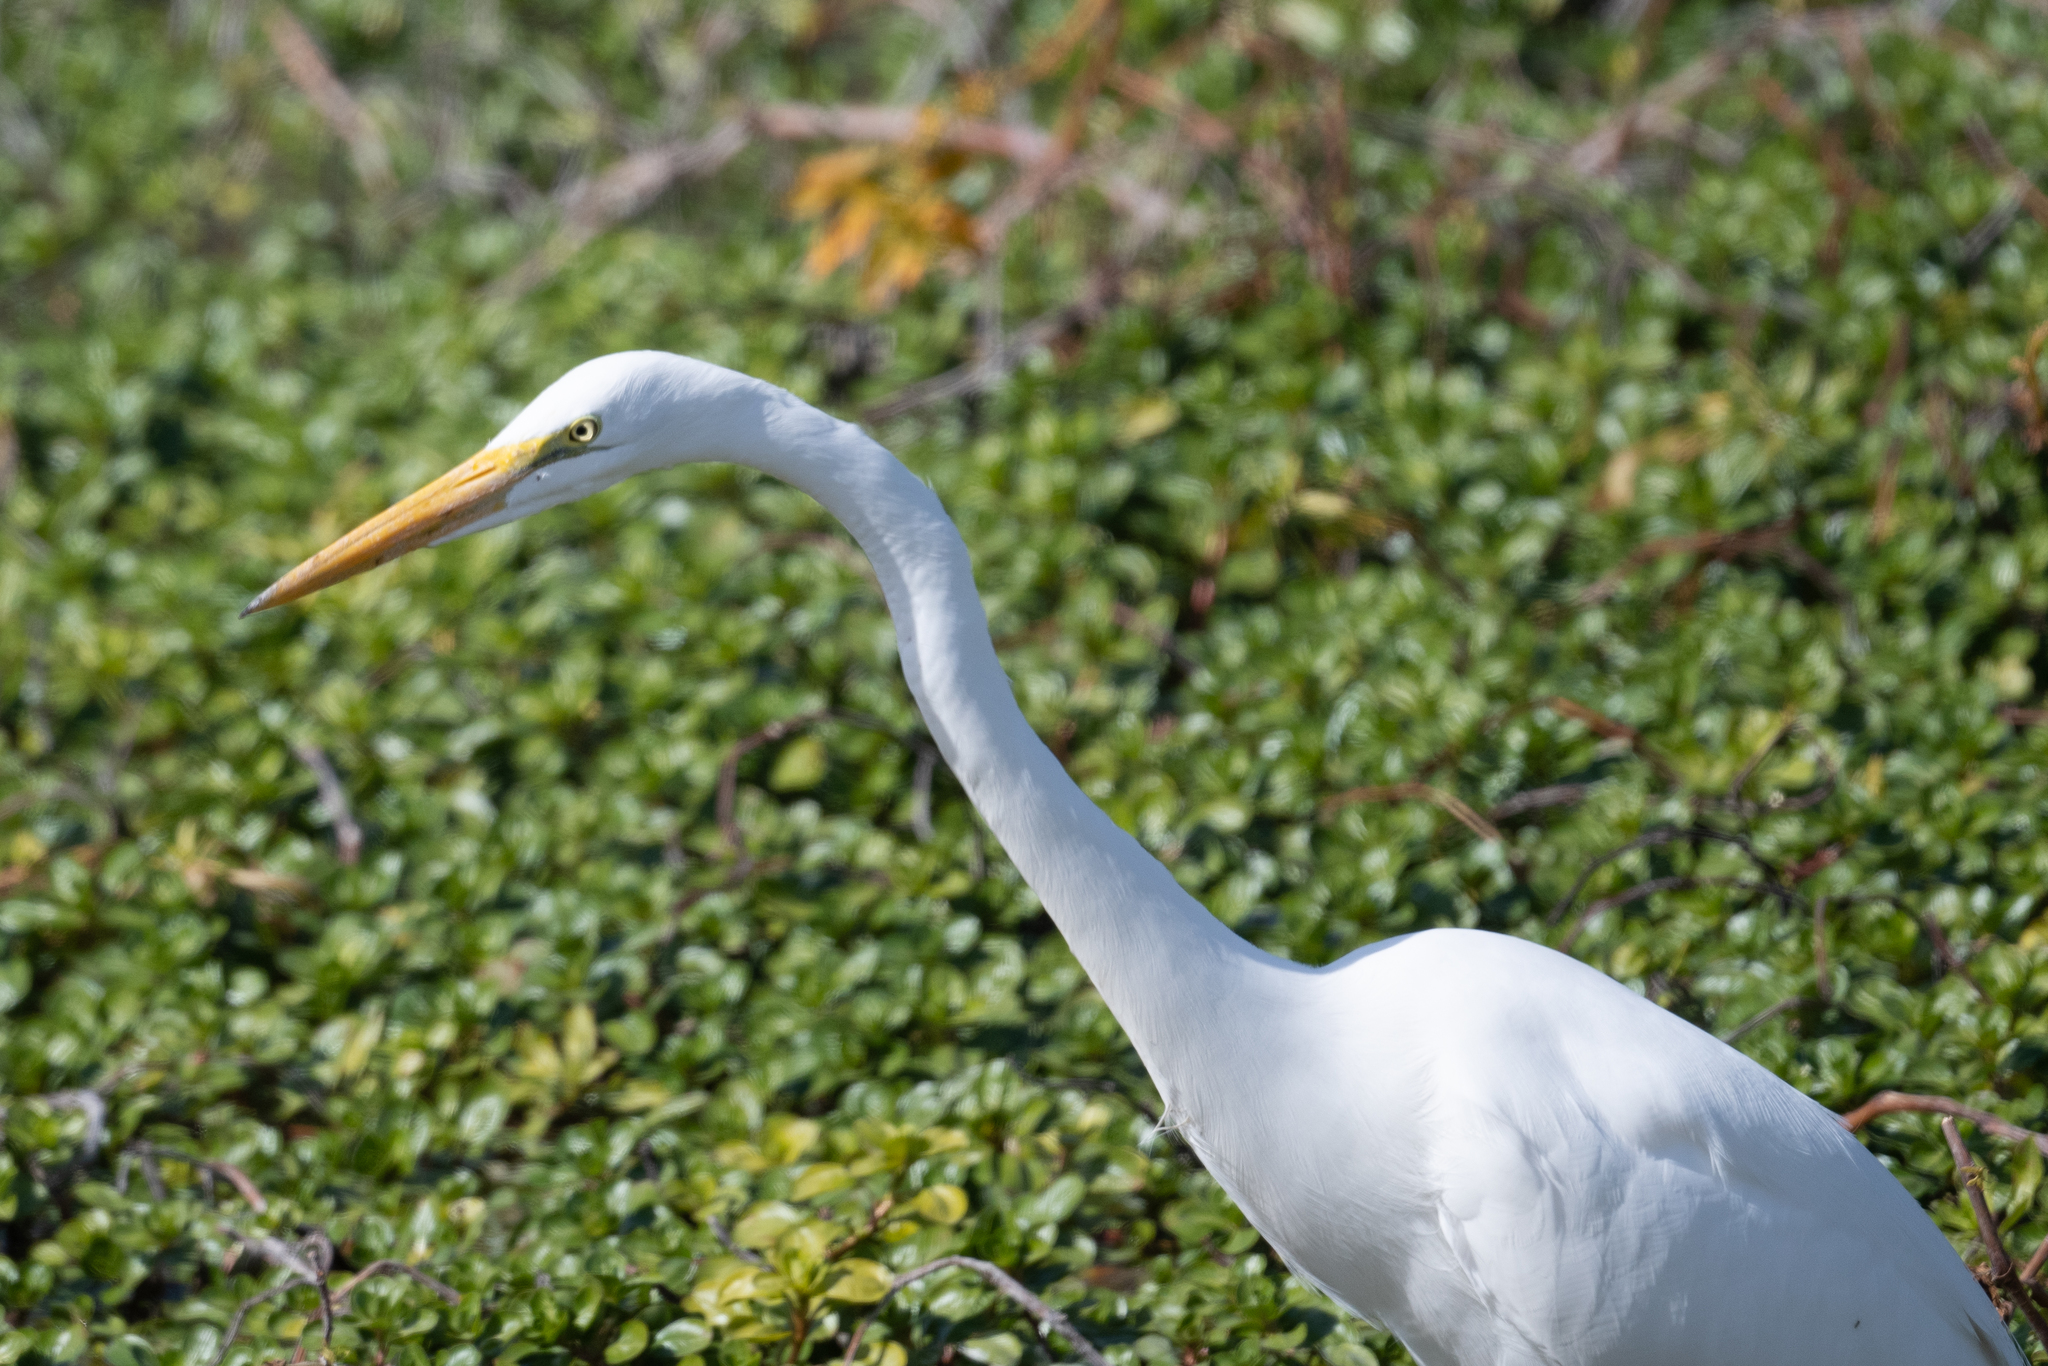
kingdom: Animalia
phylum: Chordata
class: Aves
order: Pelecaniformes
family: Ardeidae
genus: Ardea
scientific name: Ardea alba
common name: Great egret
